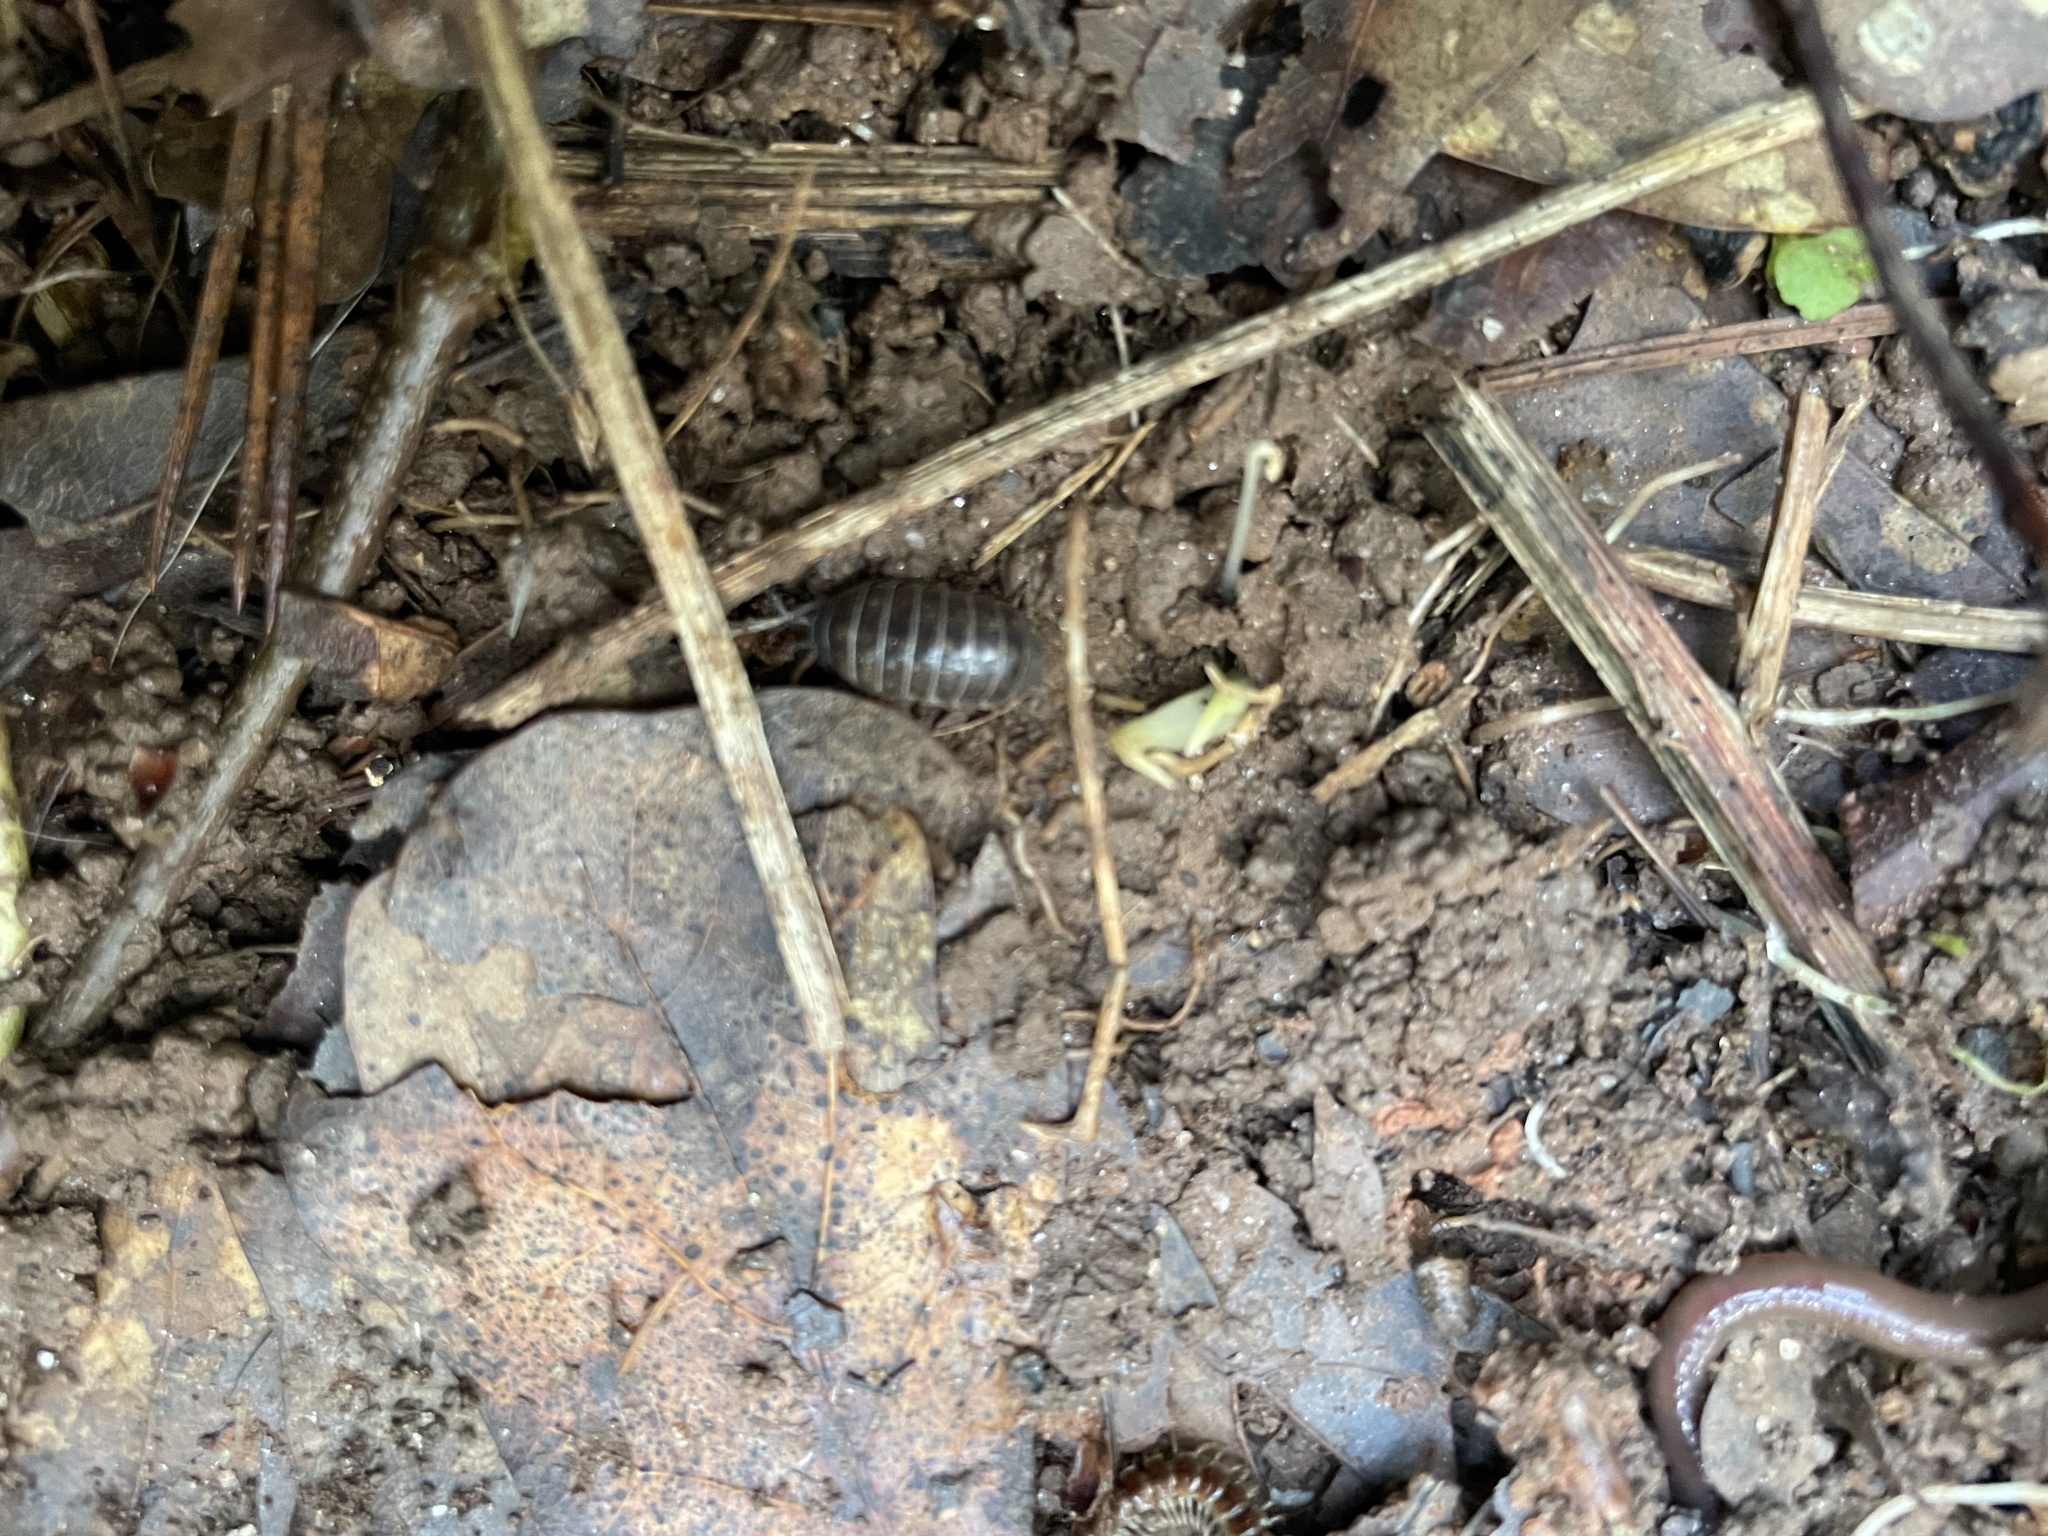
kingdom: Animalia
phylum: Arthropoda
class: Malacostraca
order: Isopoda
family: Armadillidiidae
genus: Armadillidium
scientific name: Armadillidium vulgare
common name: Common pill woodlouse
